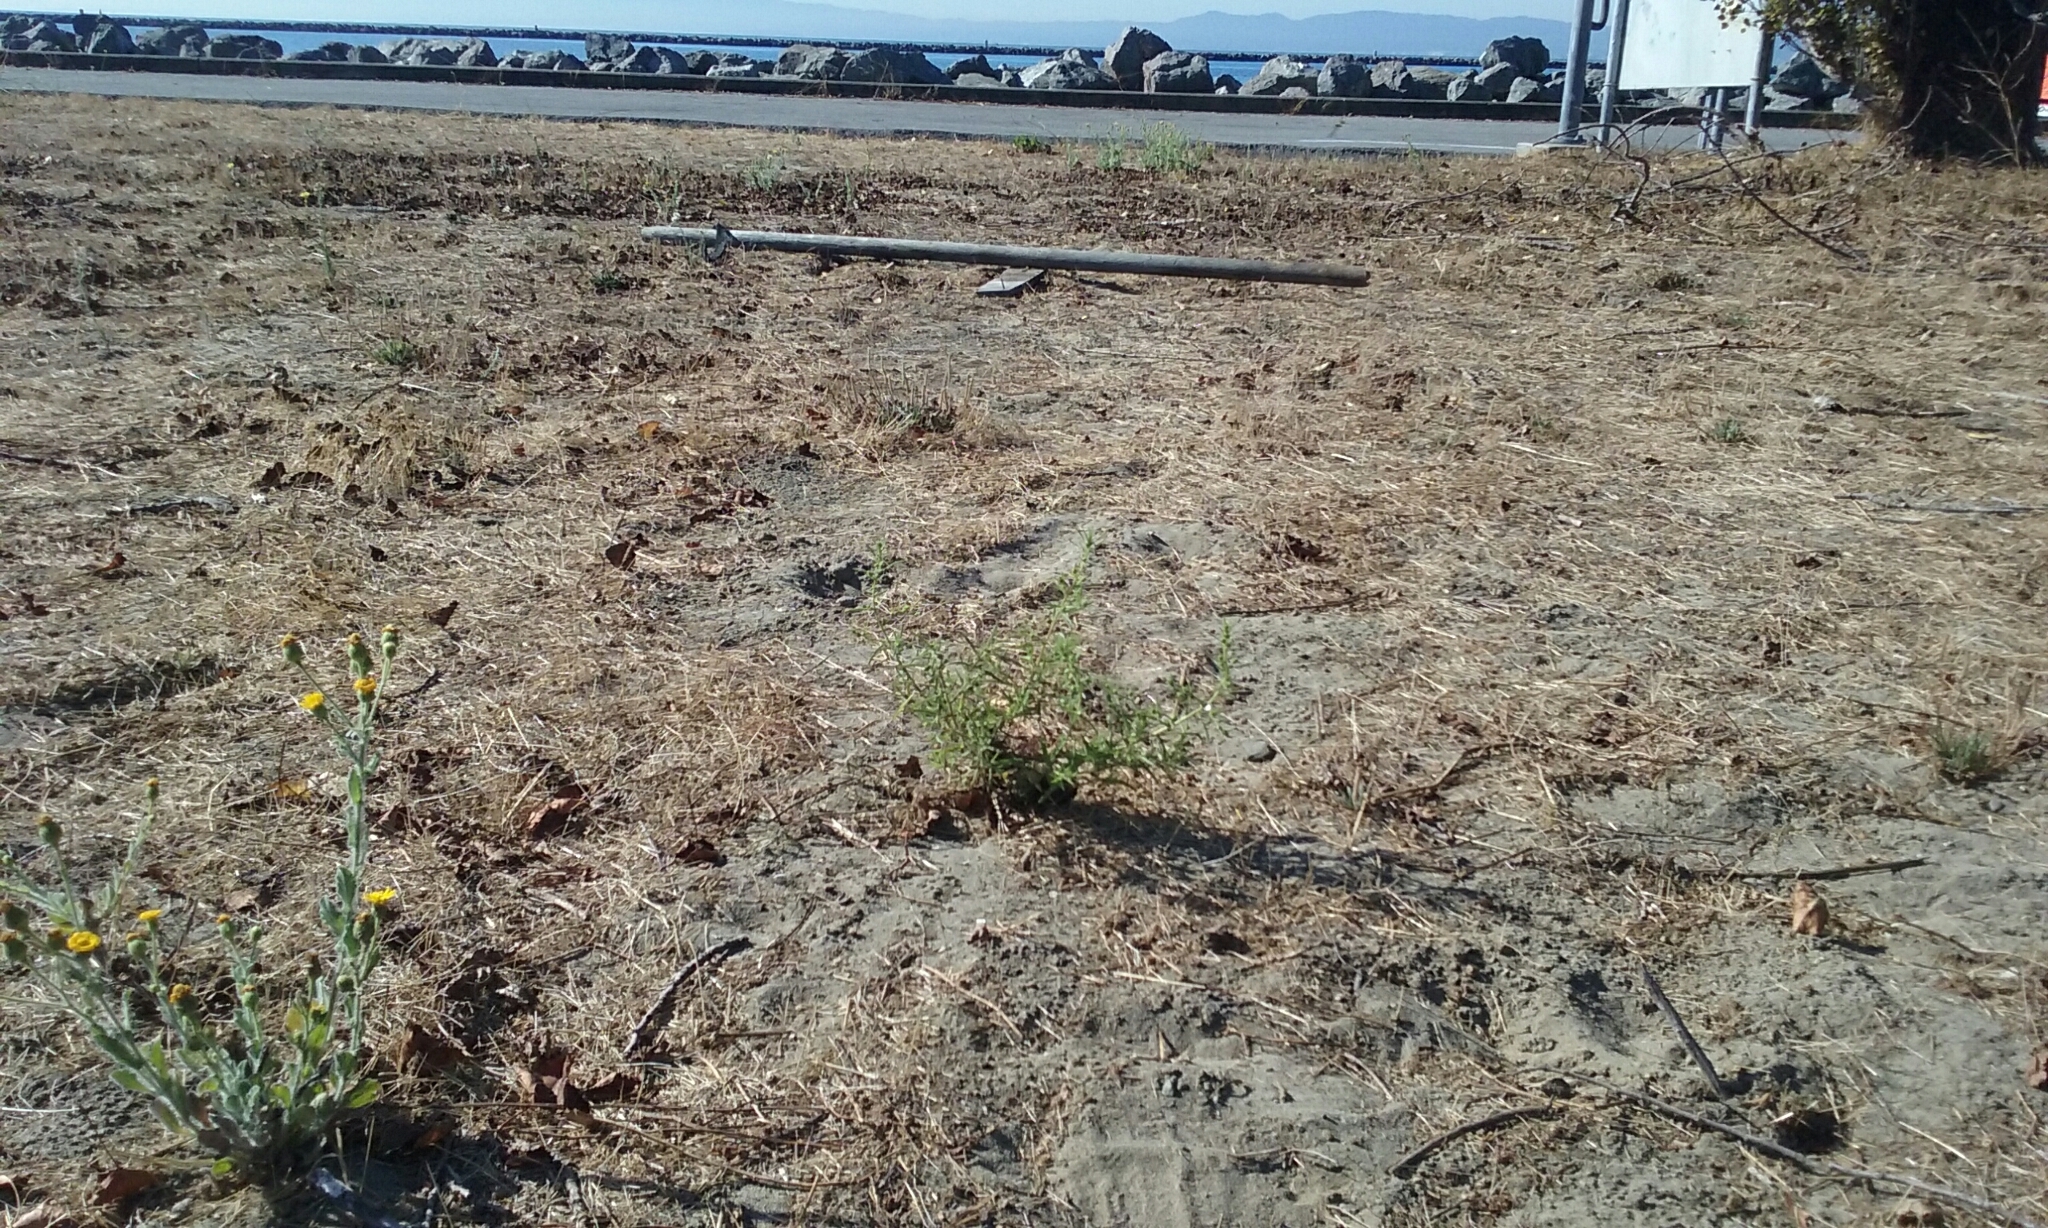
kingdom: Plantae
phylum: Tracheophyta
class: Magnoliopsida
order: Asterales
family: Asteraceae
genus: Dittrichia
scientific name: Dittrichia graveolens
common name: Stinking fleabane
